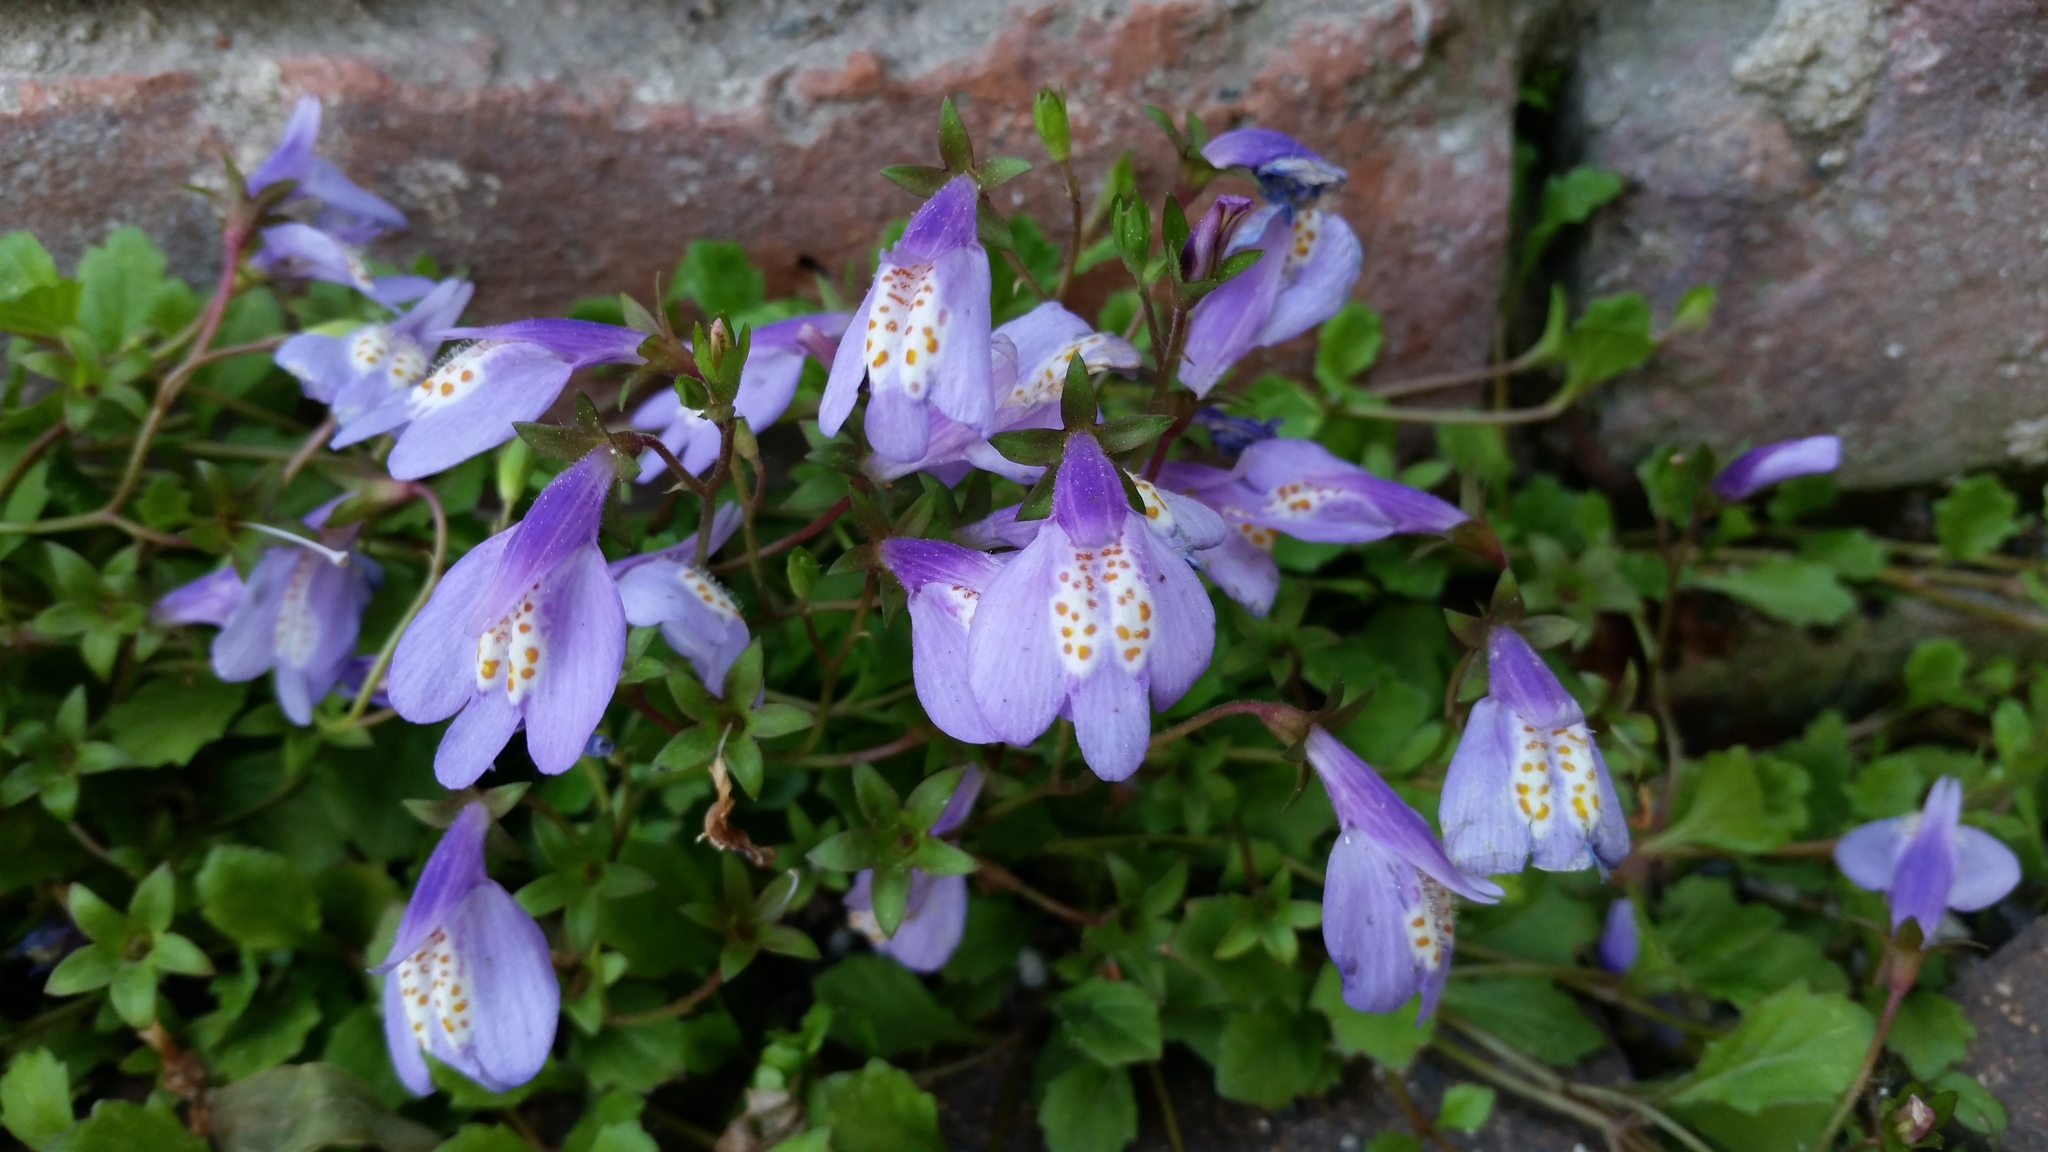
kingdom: Plantae
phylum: Tracheophyta
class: Magnoliopsida
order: Lamiales
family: Mazaceae
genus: Mazus
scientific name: Mazus miquelii
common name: Miquel's mazus
